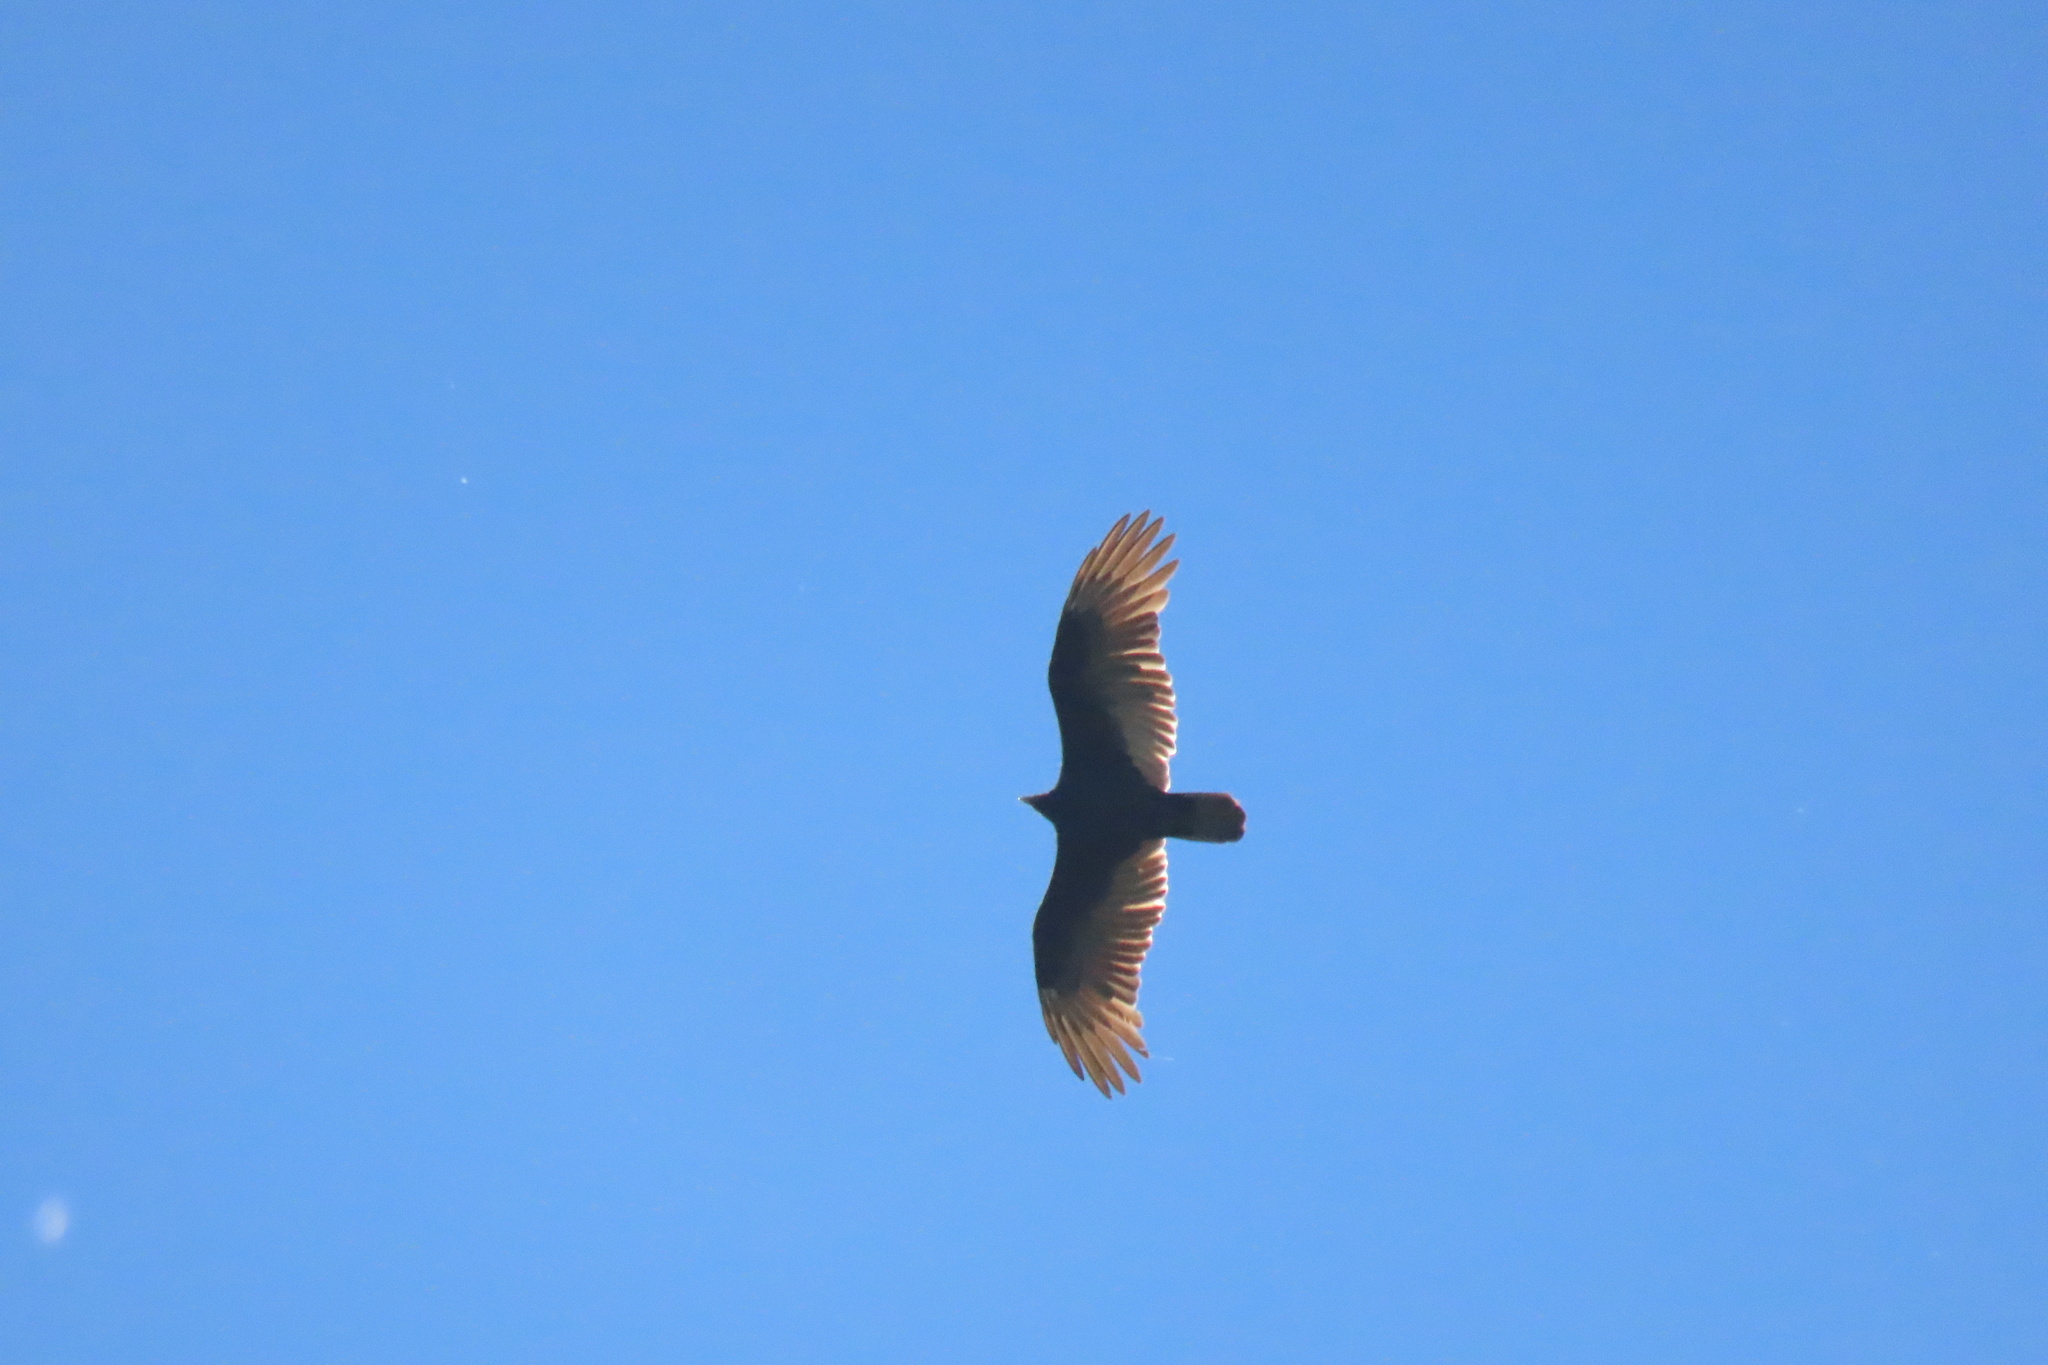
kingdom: Animalia
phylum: Chordata
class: Aves
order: Accipitriformes
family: Cathartidae
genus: Cathartes
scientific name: Cathartes aura
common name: Turkey vulture
